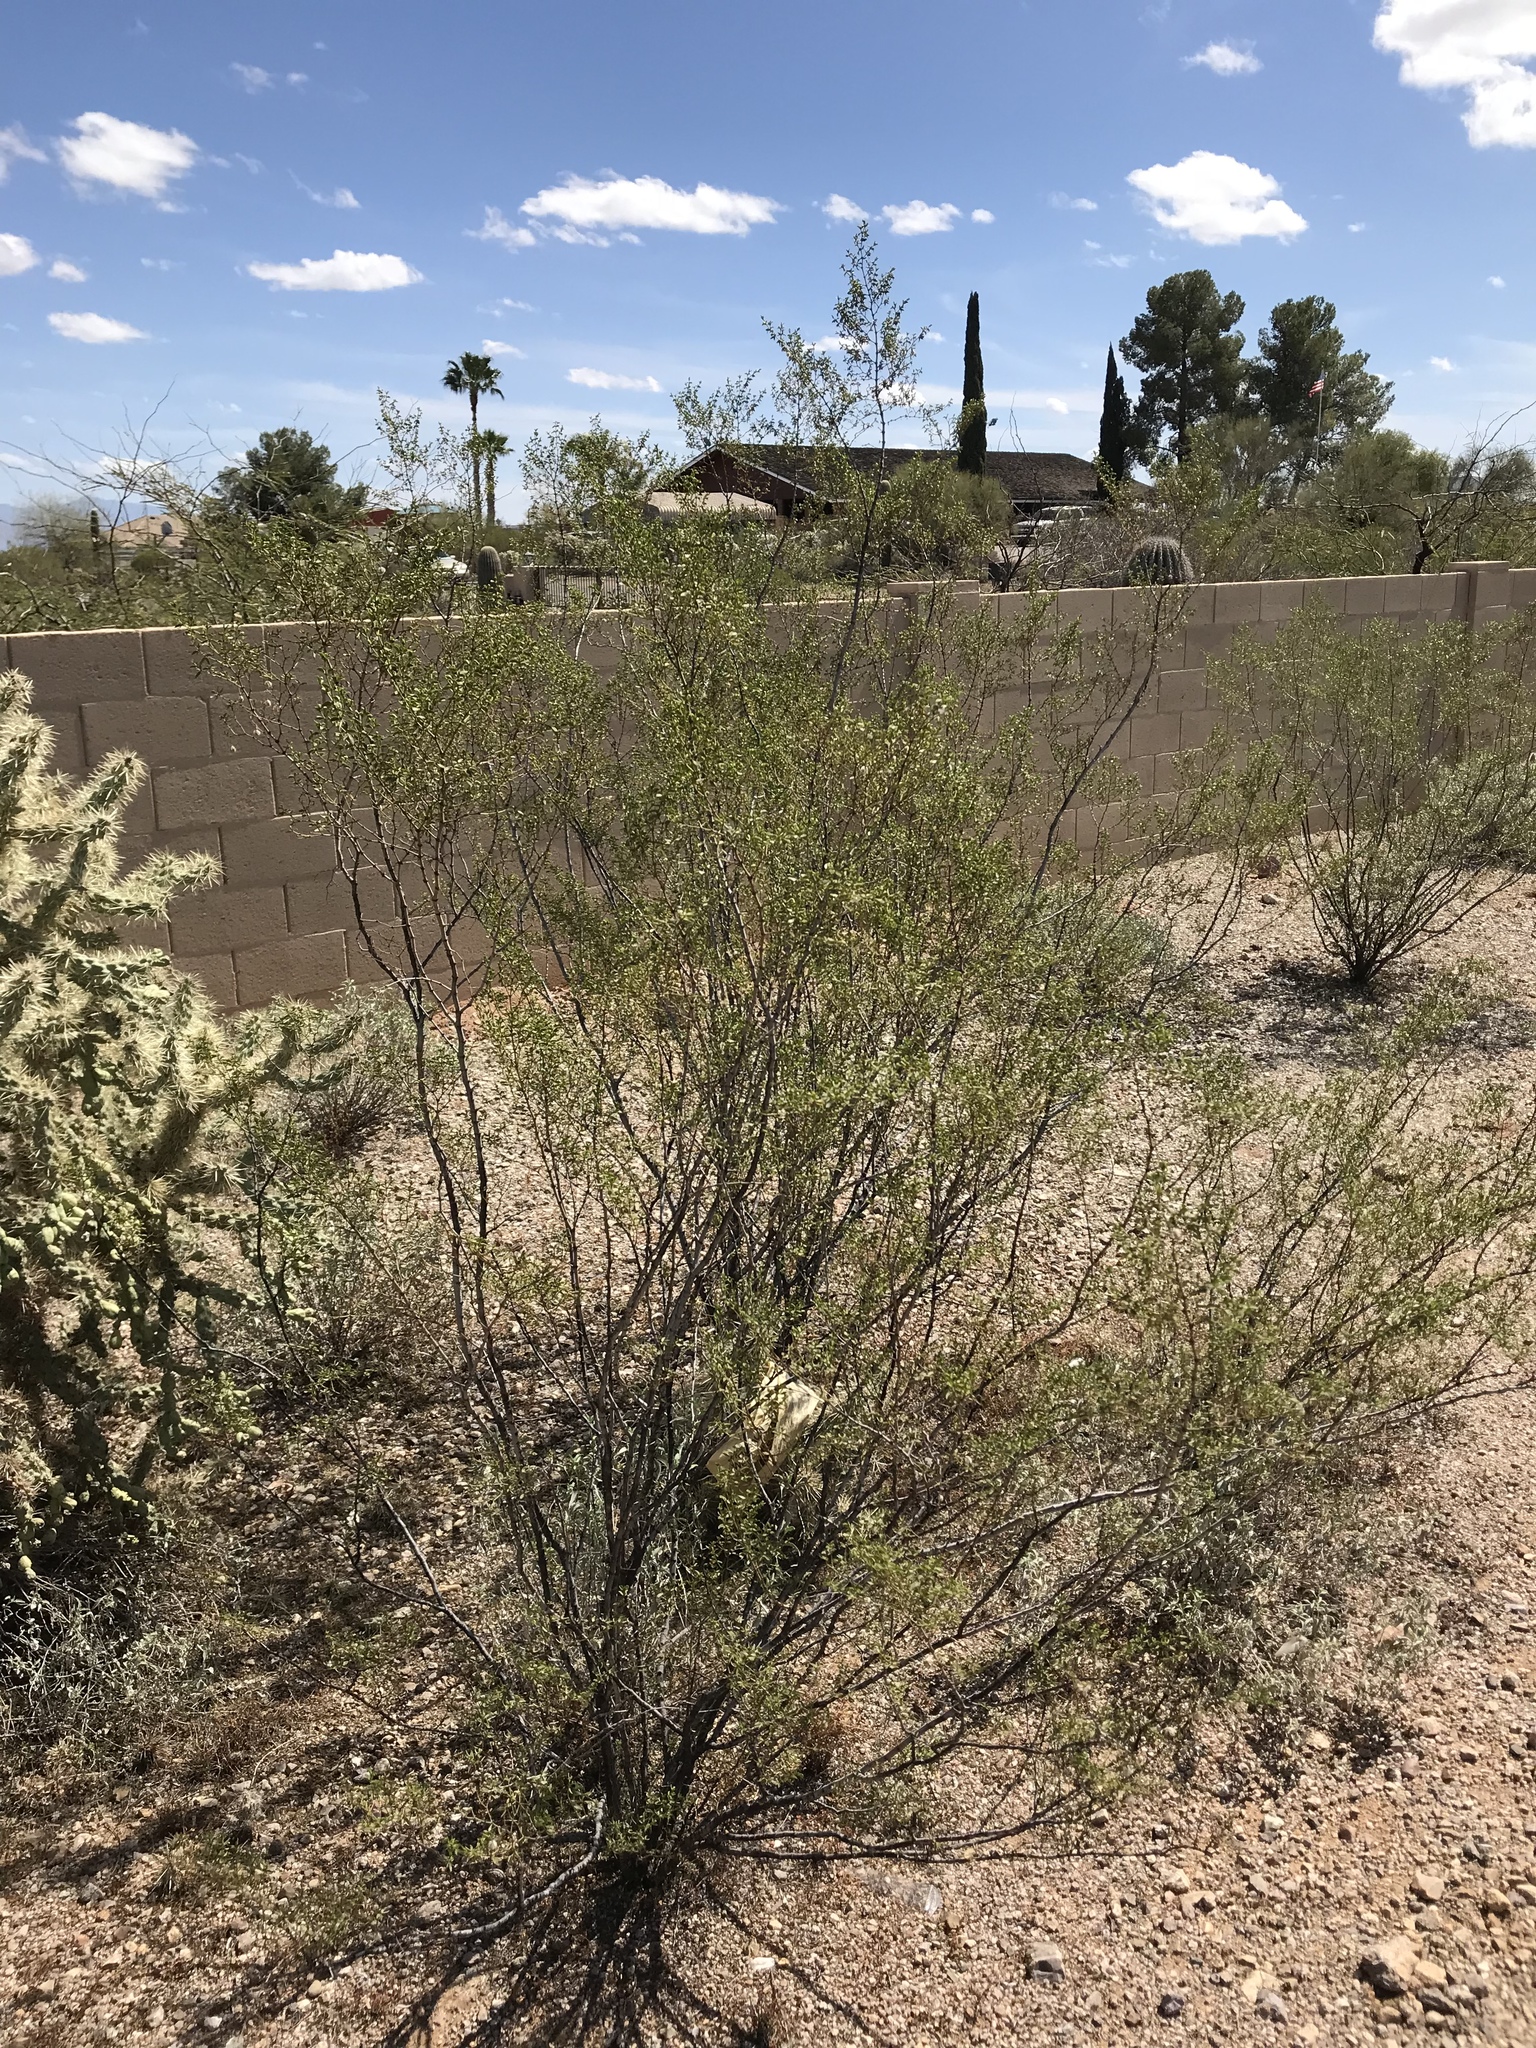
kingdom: Plantae
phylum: Tracheophyta
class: Magnoliopsida
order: Zygophyllales
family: Zygophyllaceae
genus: Larrea
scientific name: Larrea tridentata
